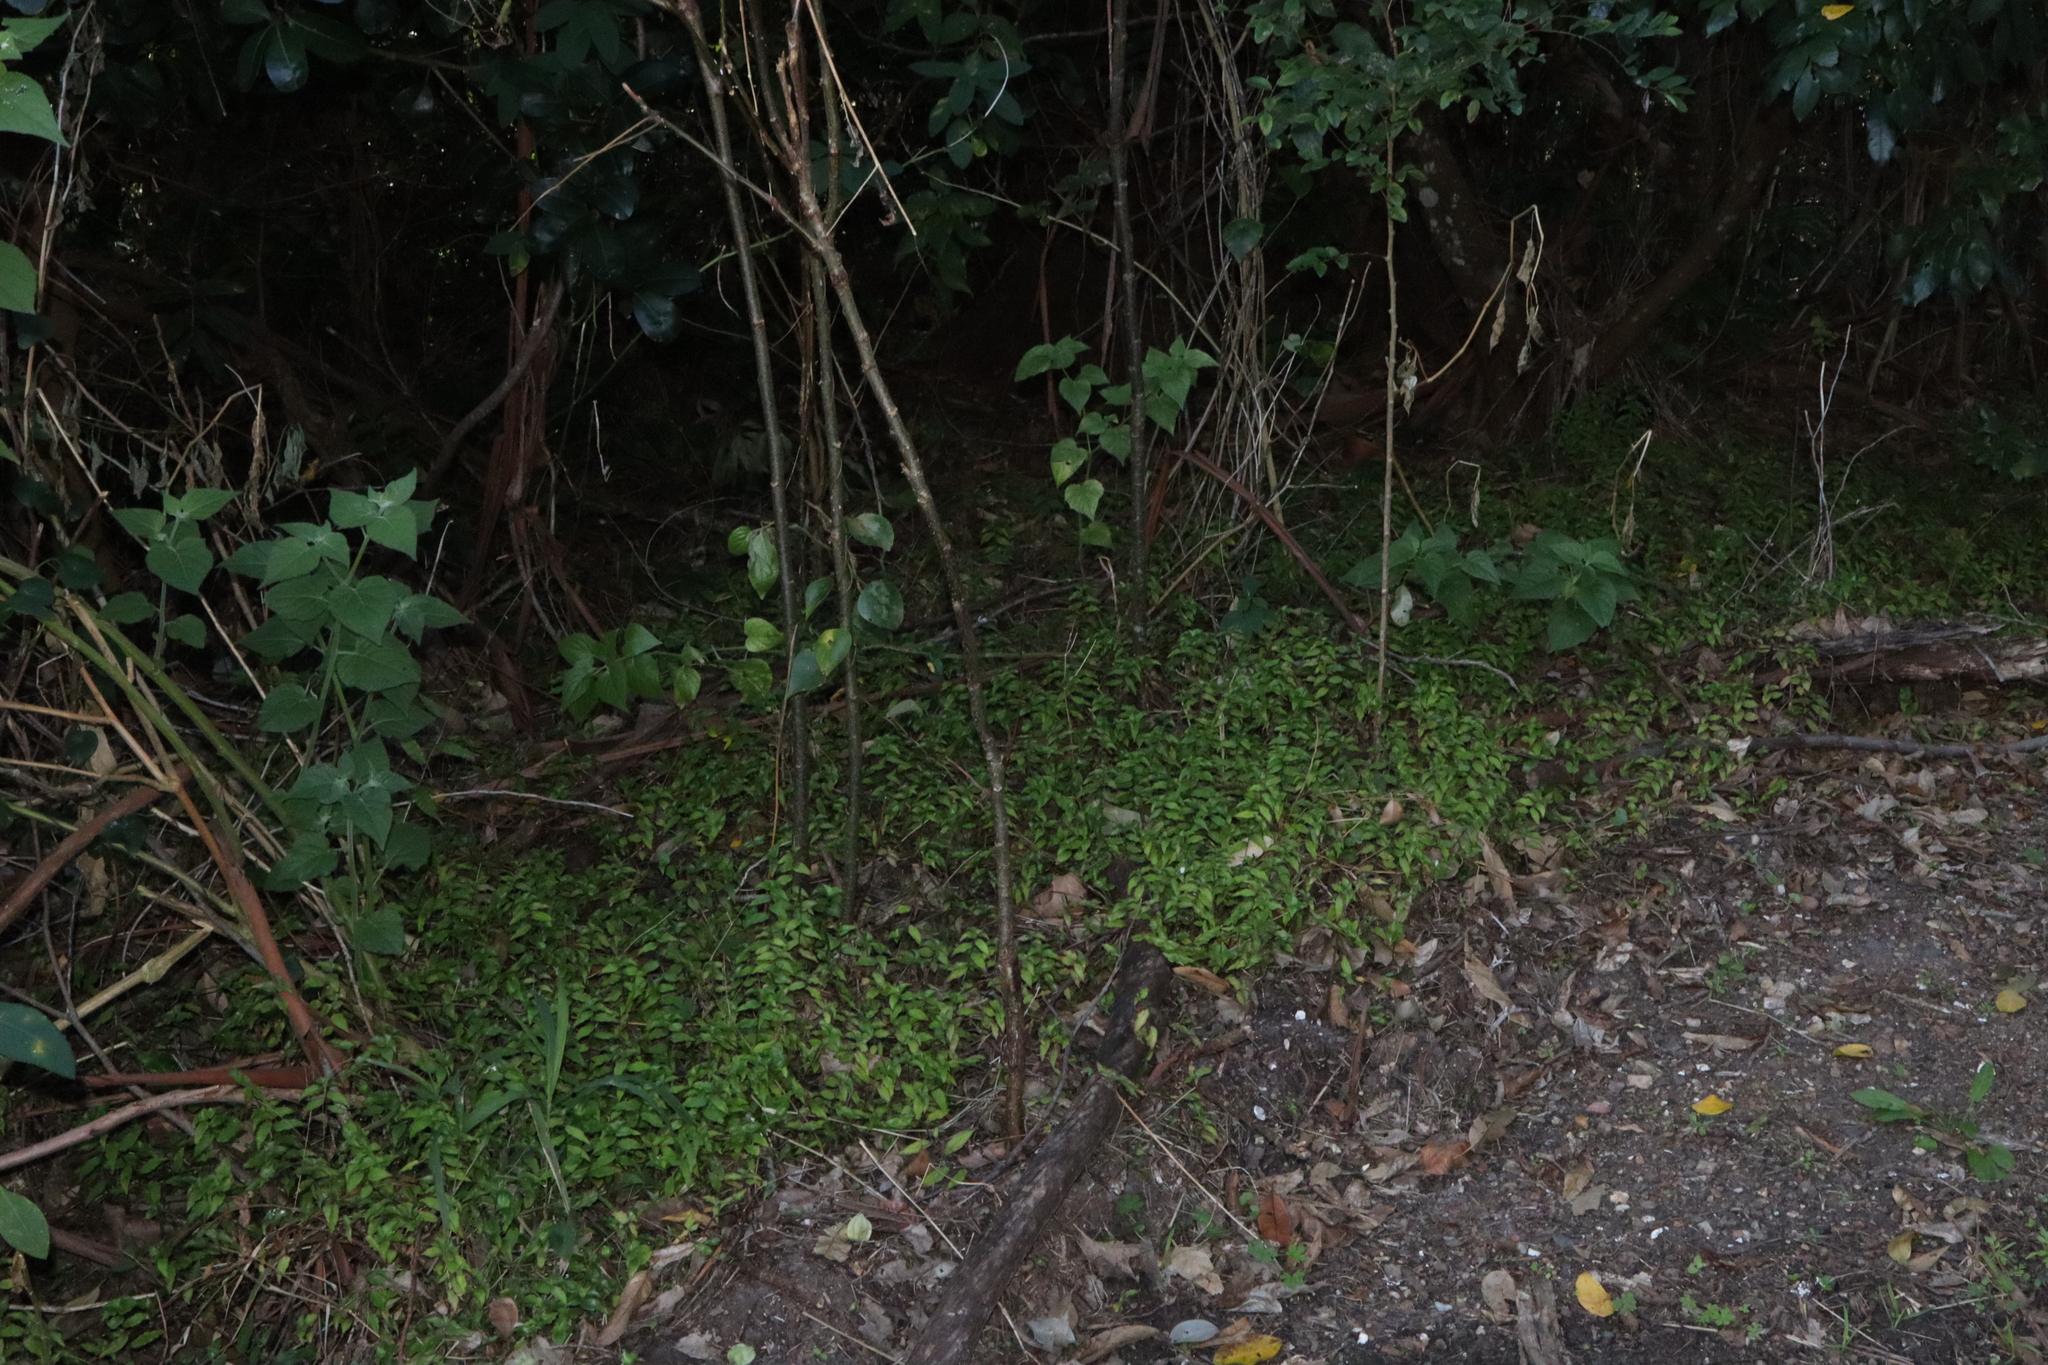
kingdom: Plantae
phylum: Tracheophyta
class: Liliopsida
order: Commelinales
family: Commelinaceae
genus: Callisia
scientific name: Callisia repens
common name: Creeping inchplant
